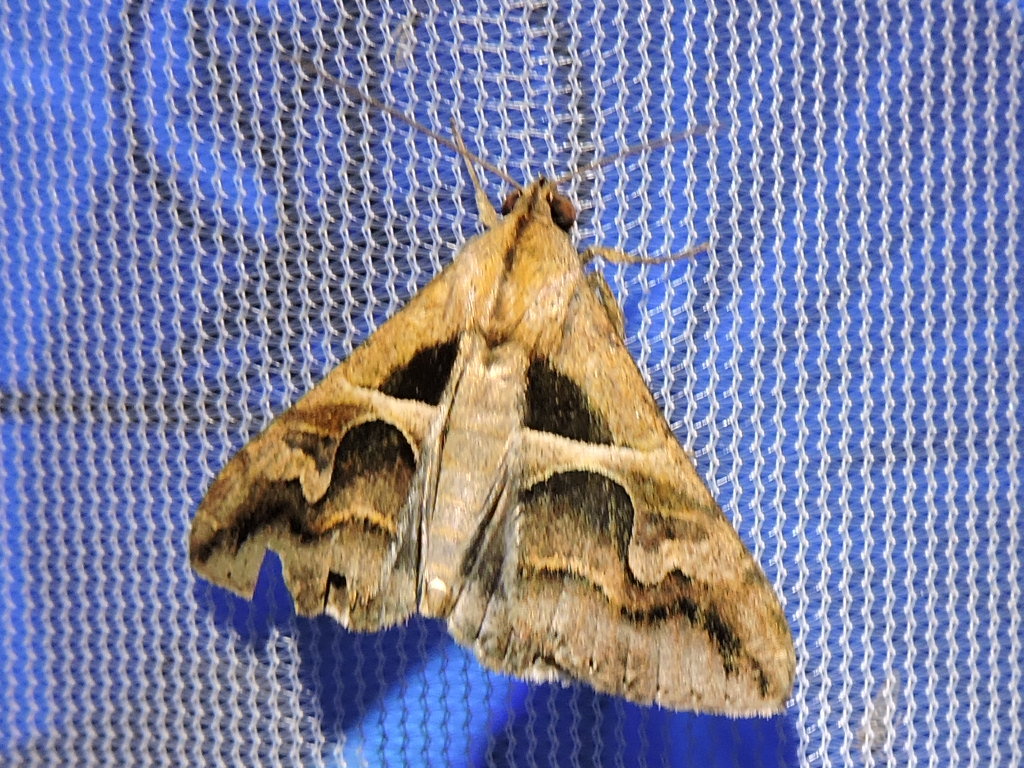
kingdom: Animalia
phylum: Arthropoda
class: Insecta
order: Lepidoptera
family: Erebidae
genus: Melipotis
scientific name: Melipotis cellaris
